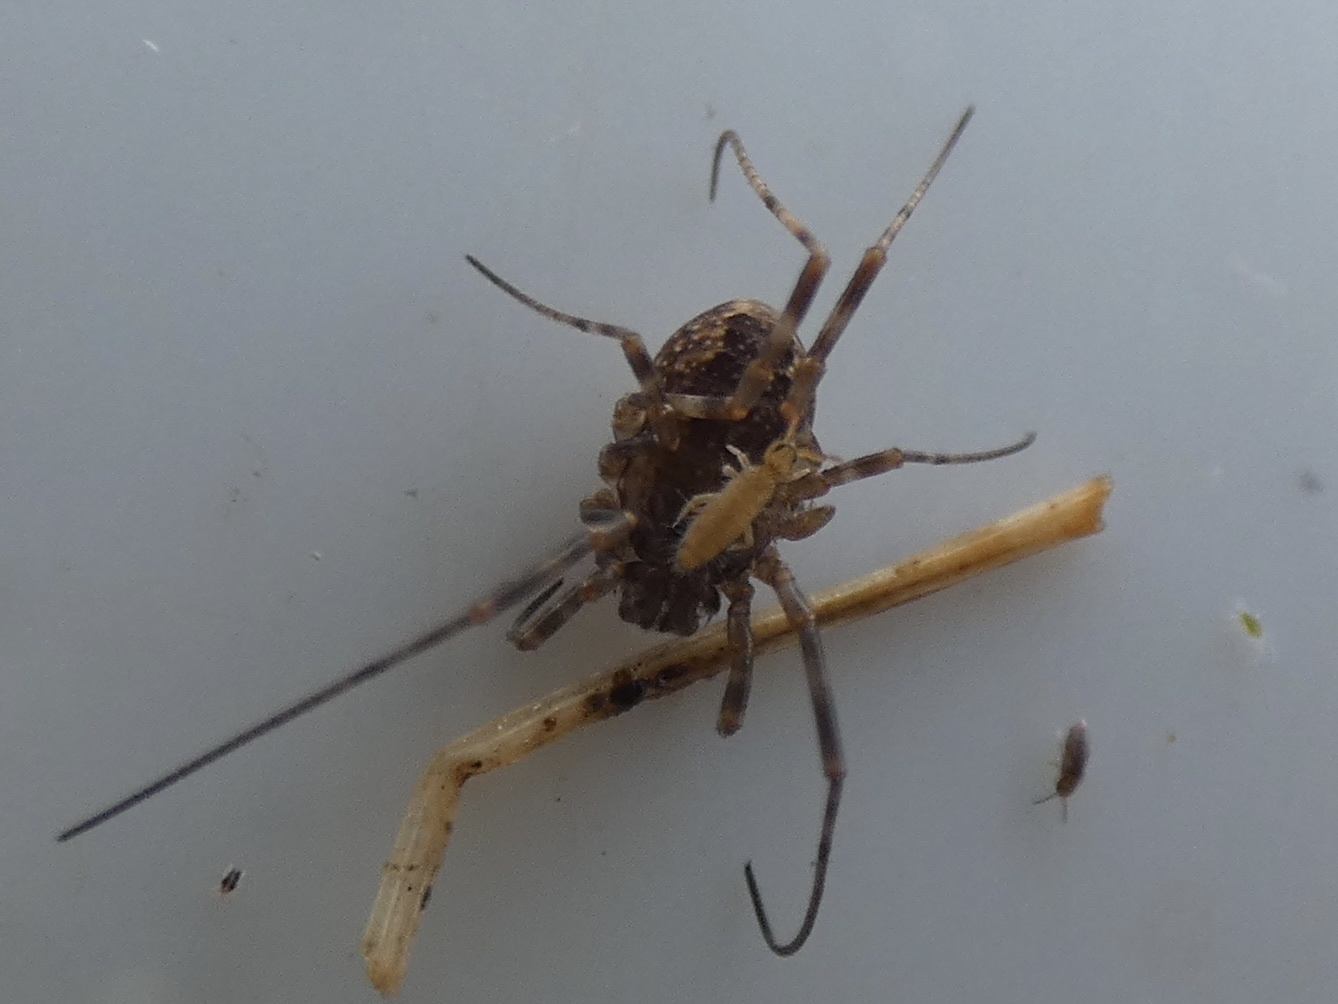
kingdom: Animalia
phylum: Arthropoda
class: Arachnida
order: Opiliones
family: Phalangiidae
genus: Rilaena
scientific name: Rilaena triangularis
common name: Spring harvestman
